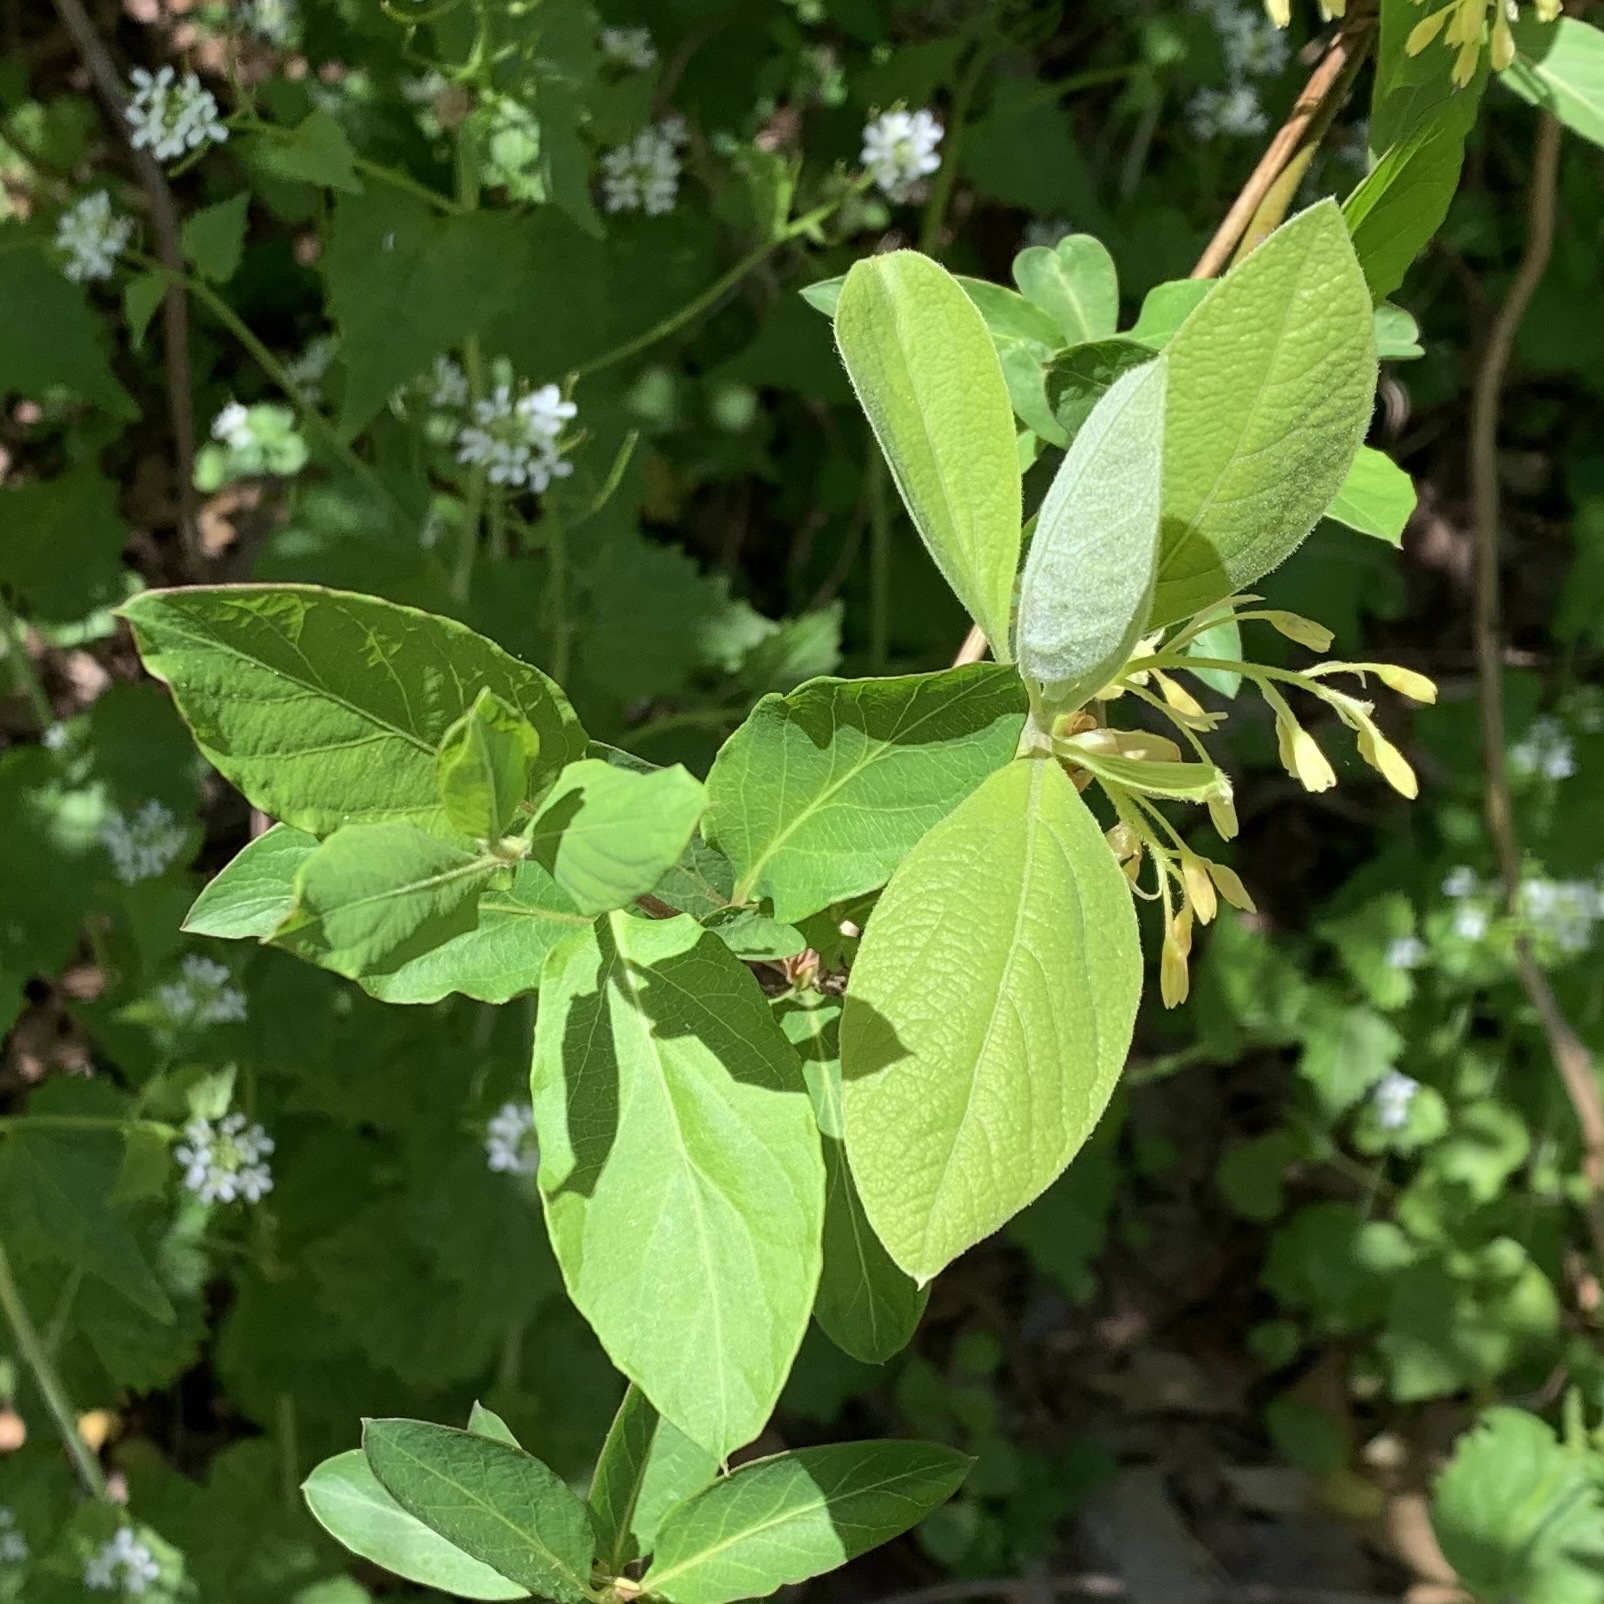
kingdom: Plantae
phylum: Tracheophyta
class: Magnoliopsida
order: Laurales
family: Lauraceae
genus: Sassafras
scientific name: Sassafras albidum
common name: Sassafras
